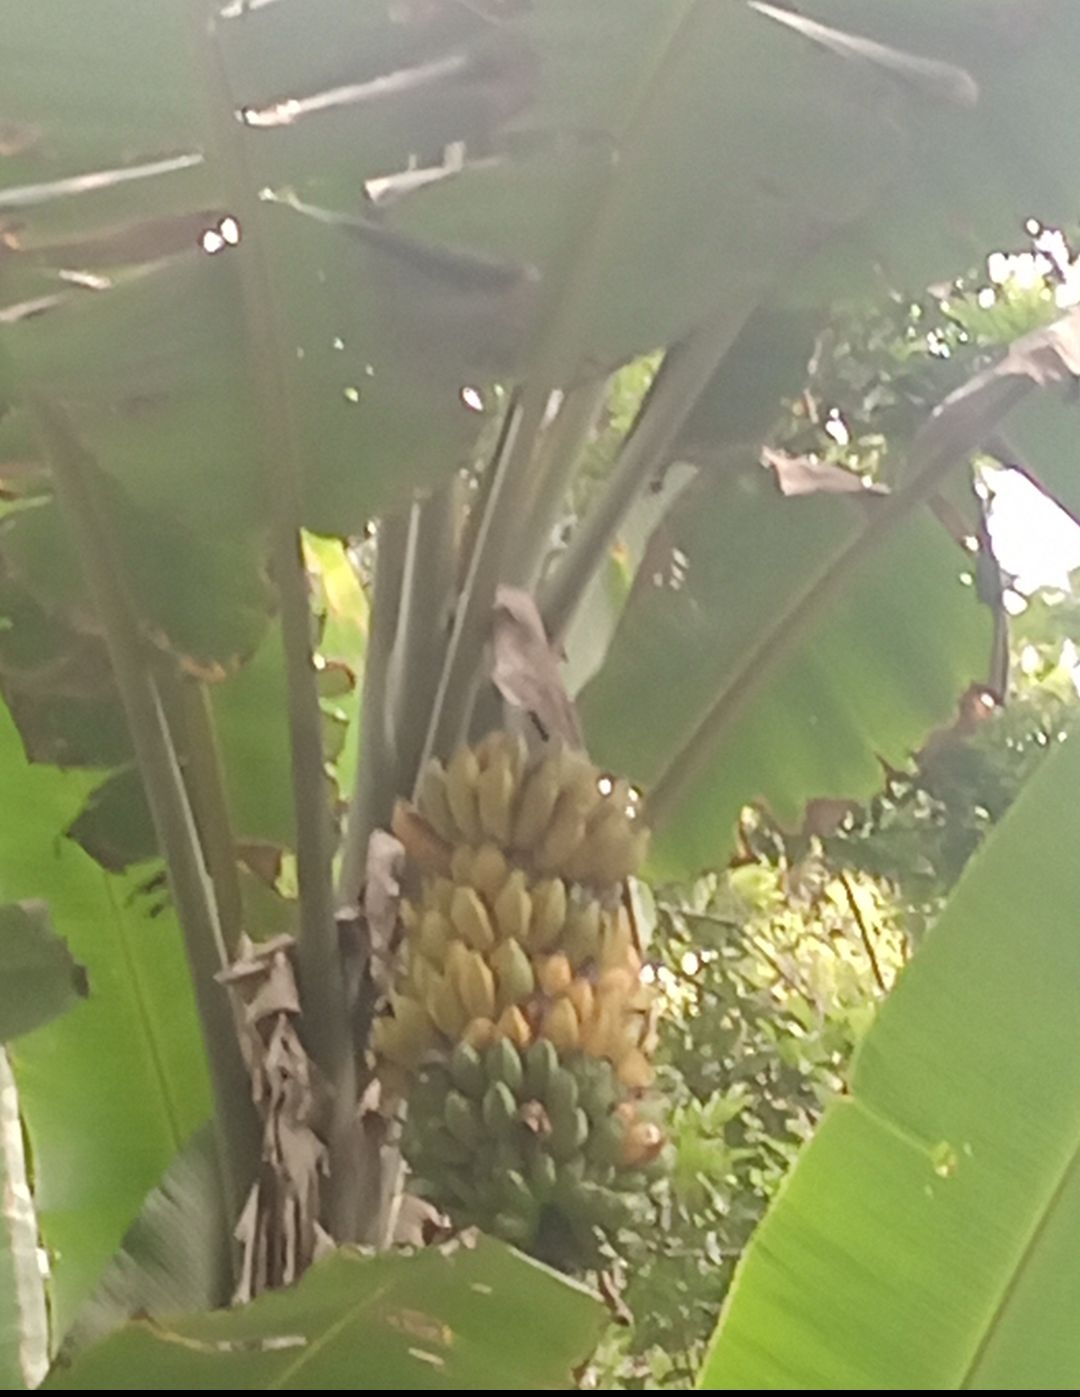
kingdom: Plantae
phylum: Tracheophyta
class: Liliopsida
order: Zingiberales
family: Musaceae
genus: Musa
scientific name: Musa acuminata
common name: Edible banana
